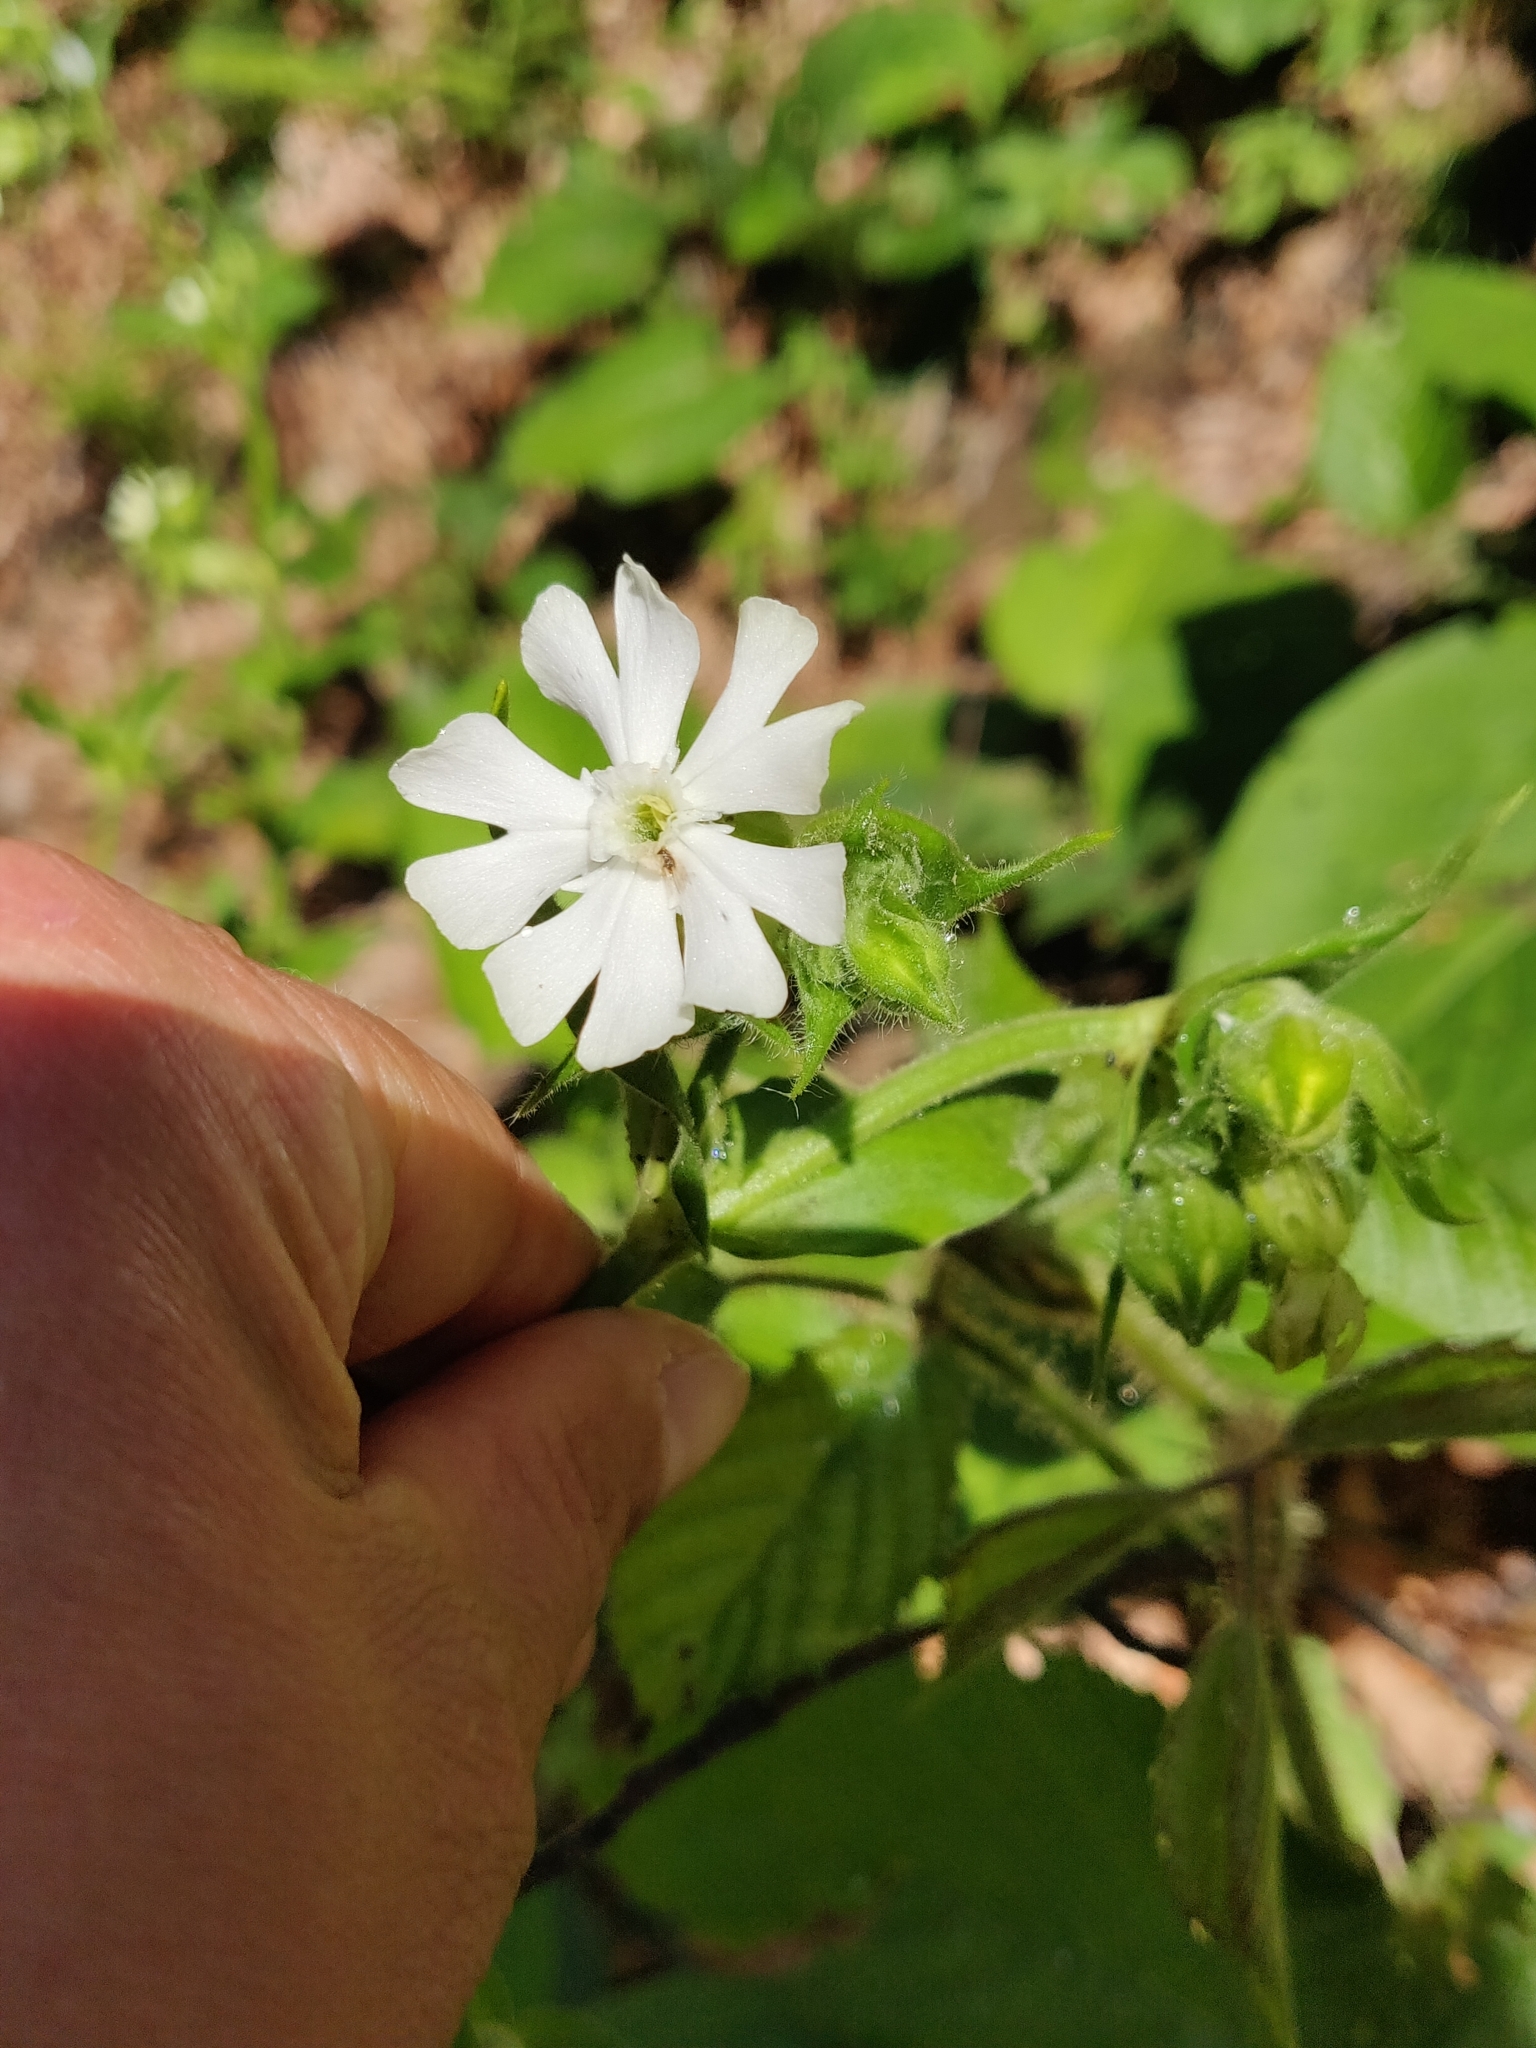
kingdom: Plantae
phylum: Tracheophyta
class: Magnoliopsida
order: Caryophyllales
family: Caryophyllaceae
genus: Silene
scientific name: Silene latifolia
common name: White campion
